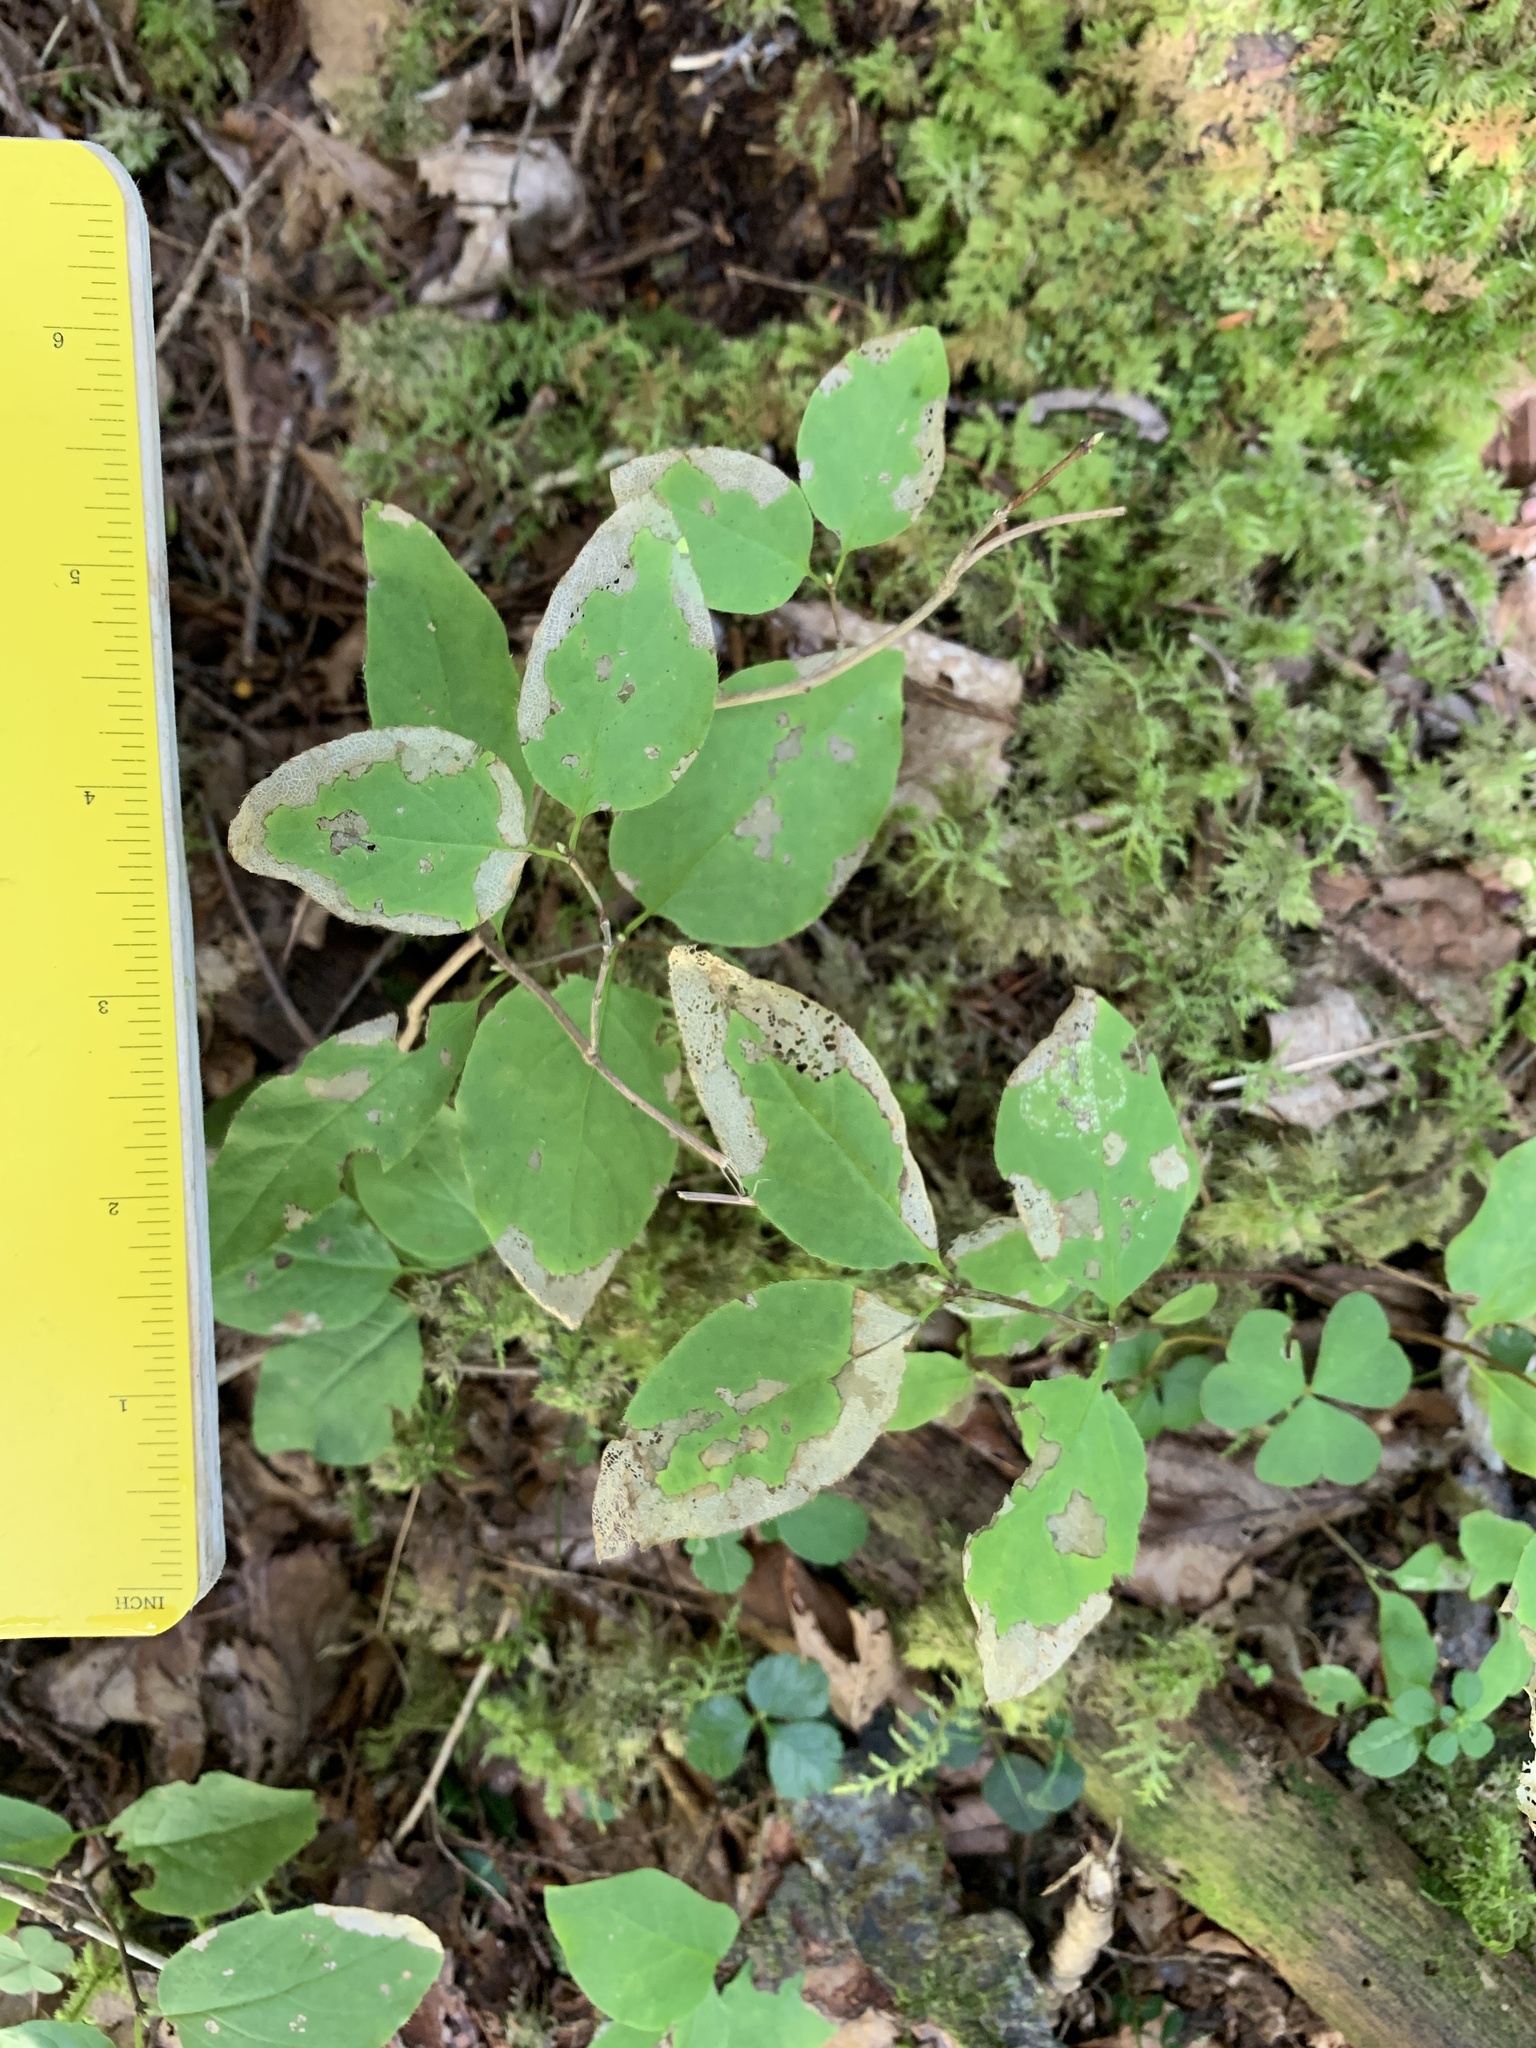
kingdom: Plantae
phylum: Tracheophyta
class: Magnoliopsida
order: Dipsacales
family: Caprifoliaceae
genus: Lonicera
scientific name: Lonicera canadensis
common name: American fly-honeysuckle
